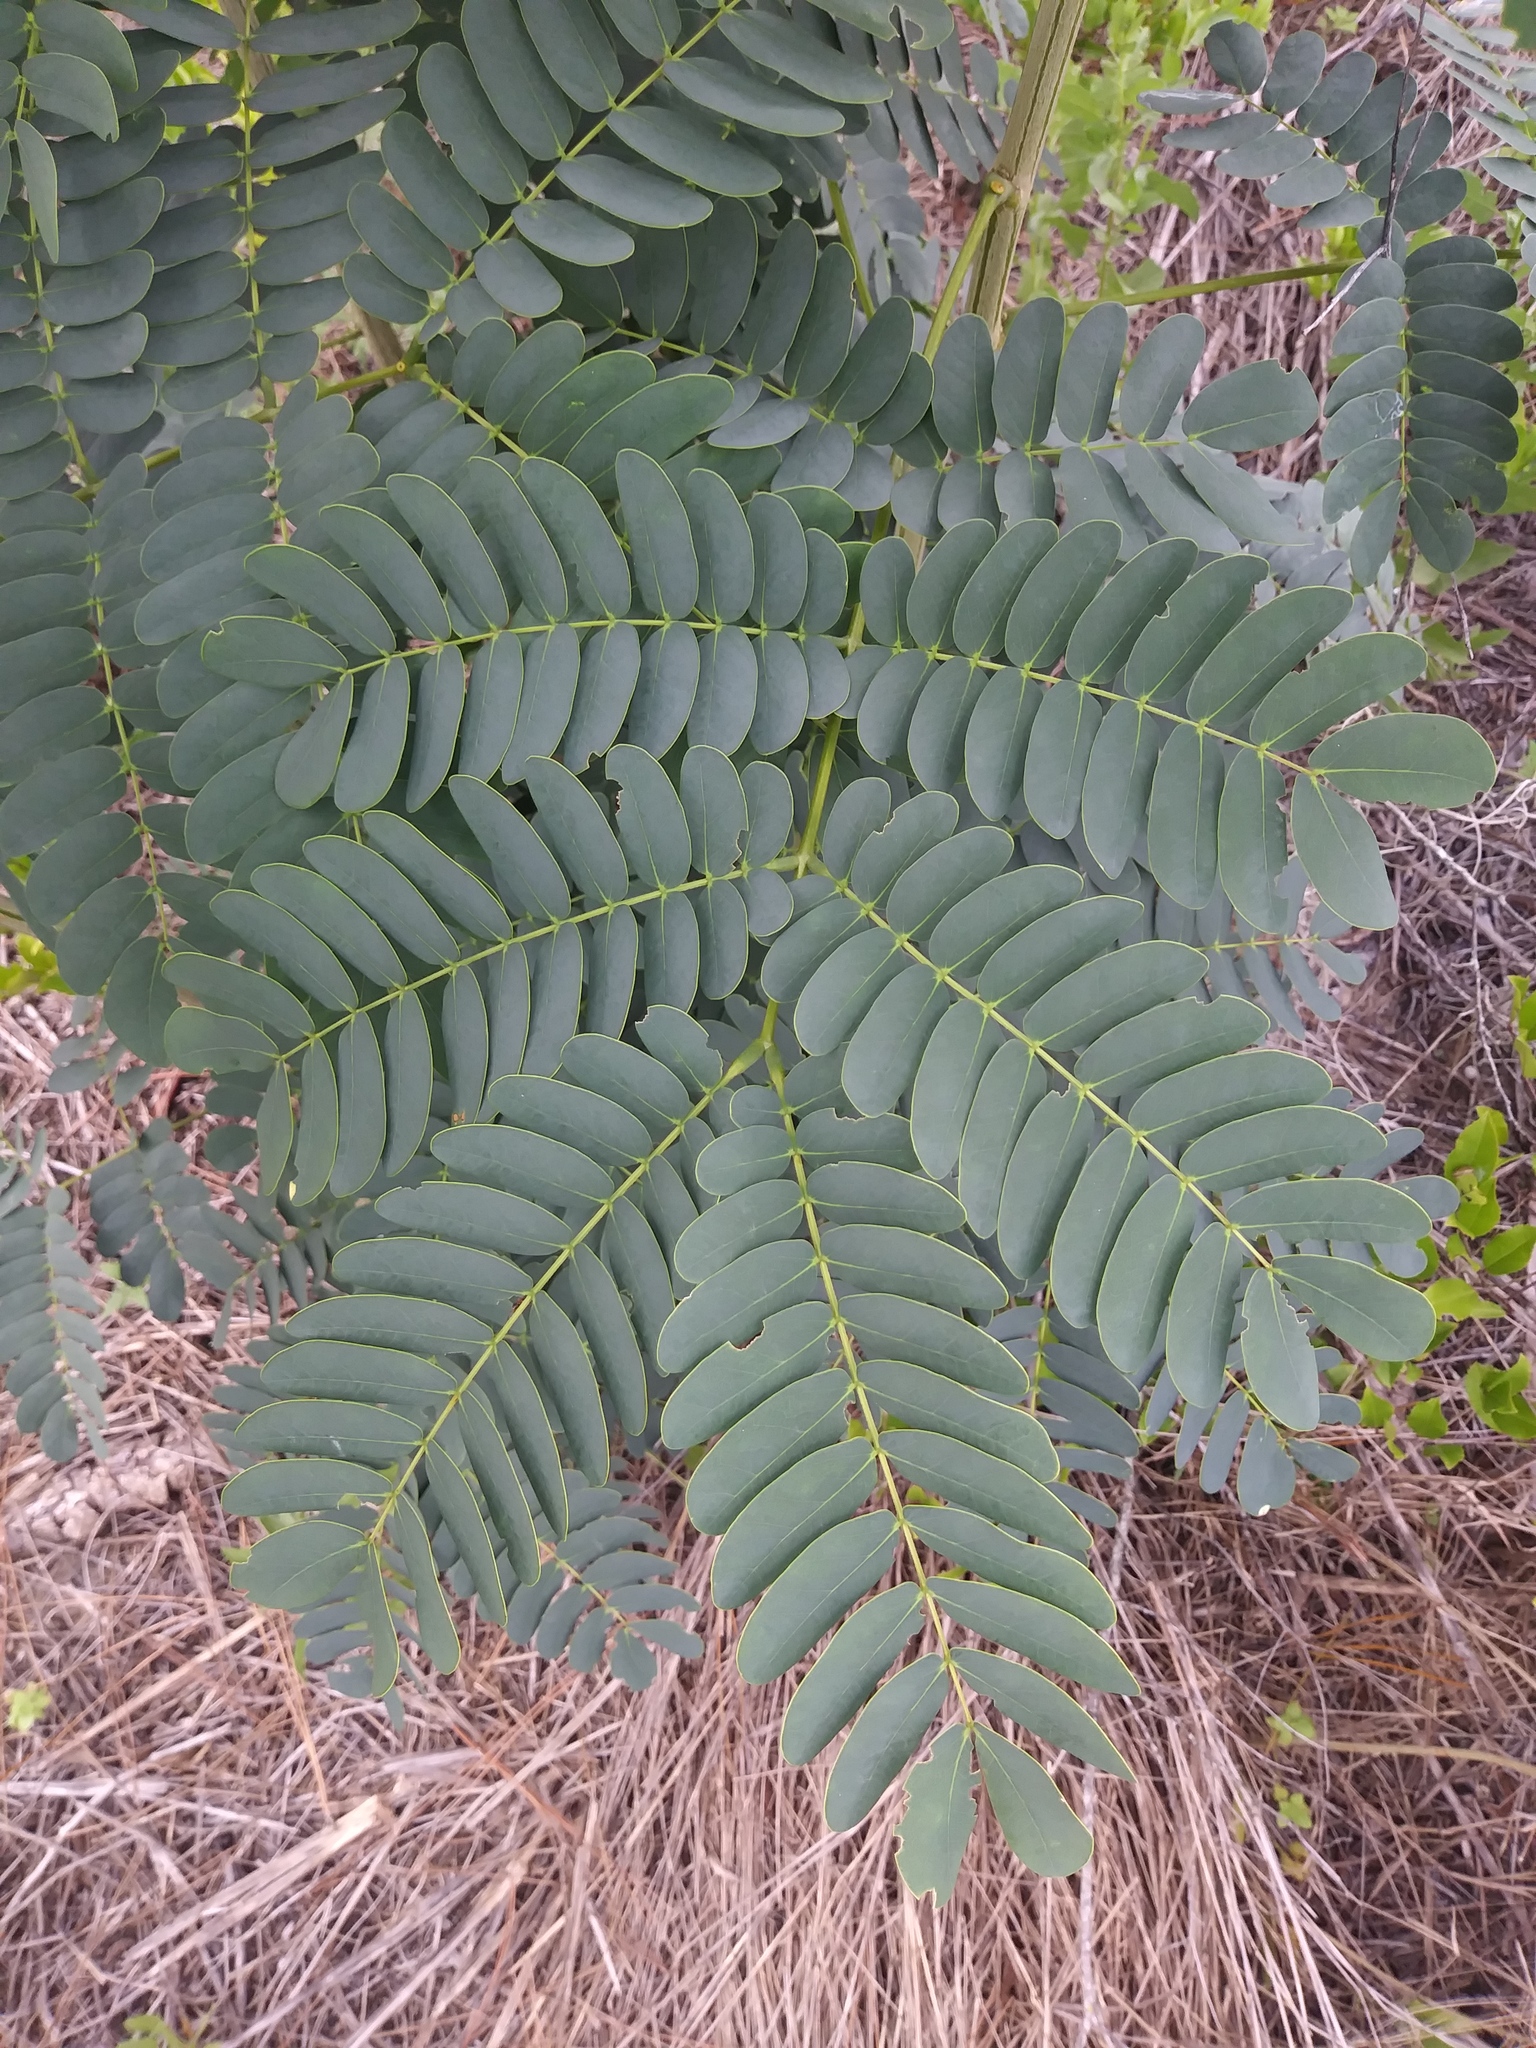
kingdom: Plantae
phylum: Tracheophyta
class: Magnoliopsida
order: Fabales
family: Fabaceae
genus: Albizia
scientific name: Albizia lebbeck
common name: Woman's tongue
